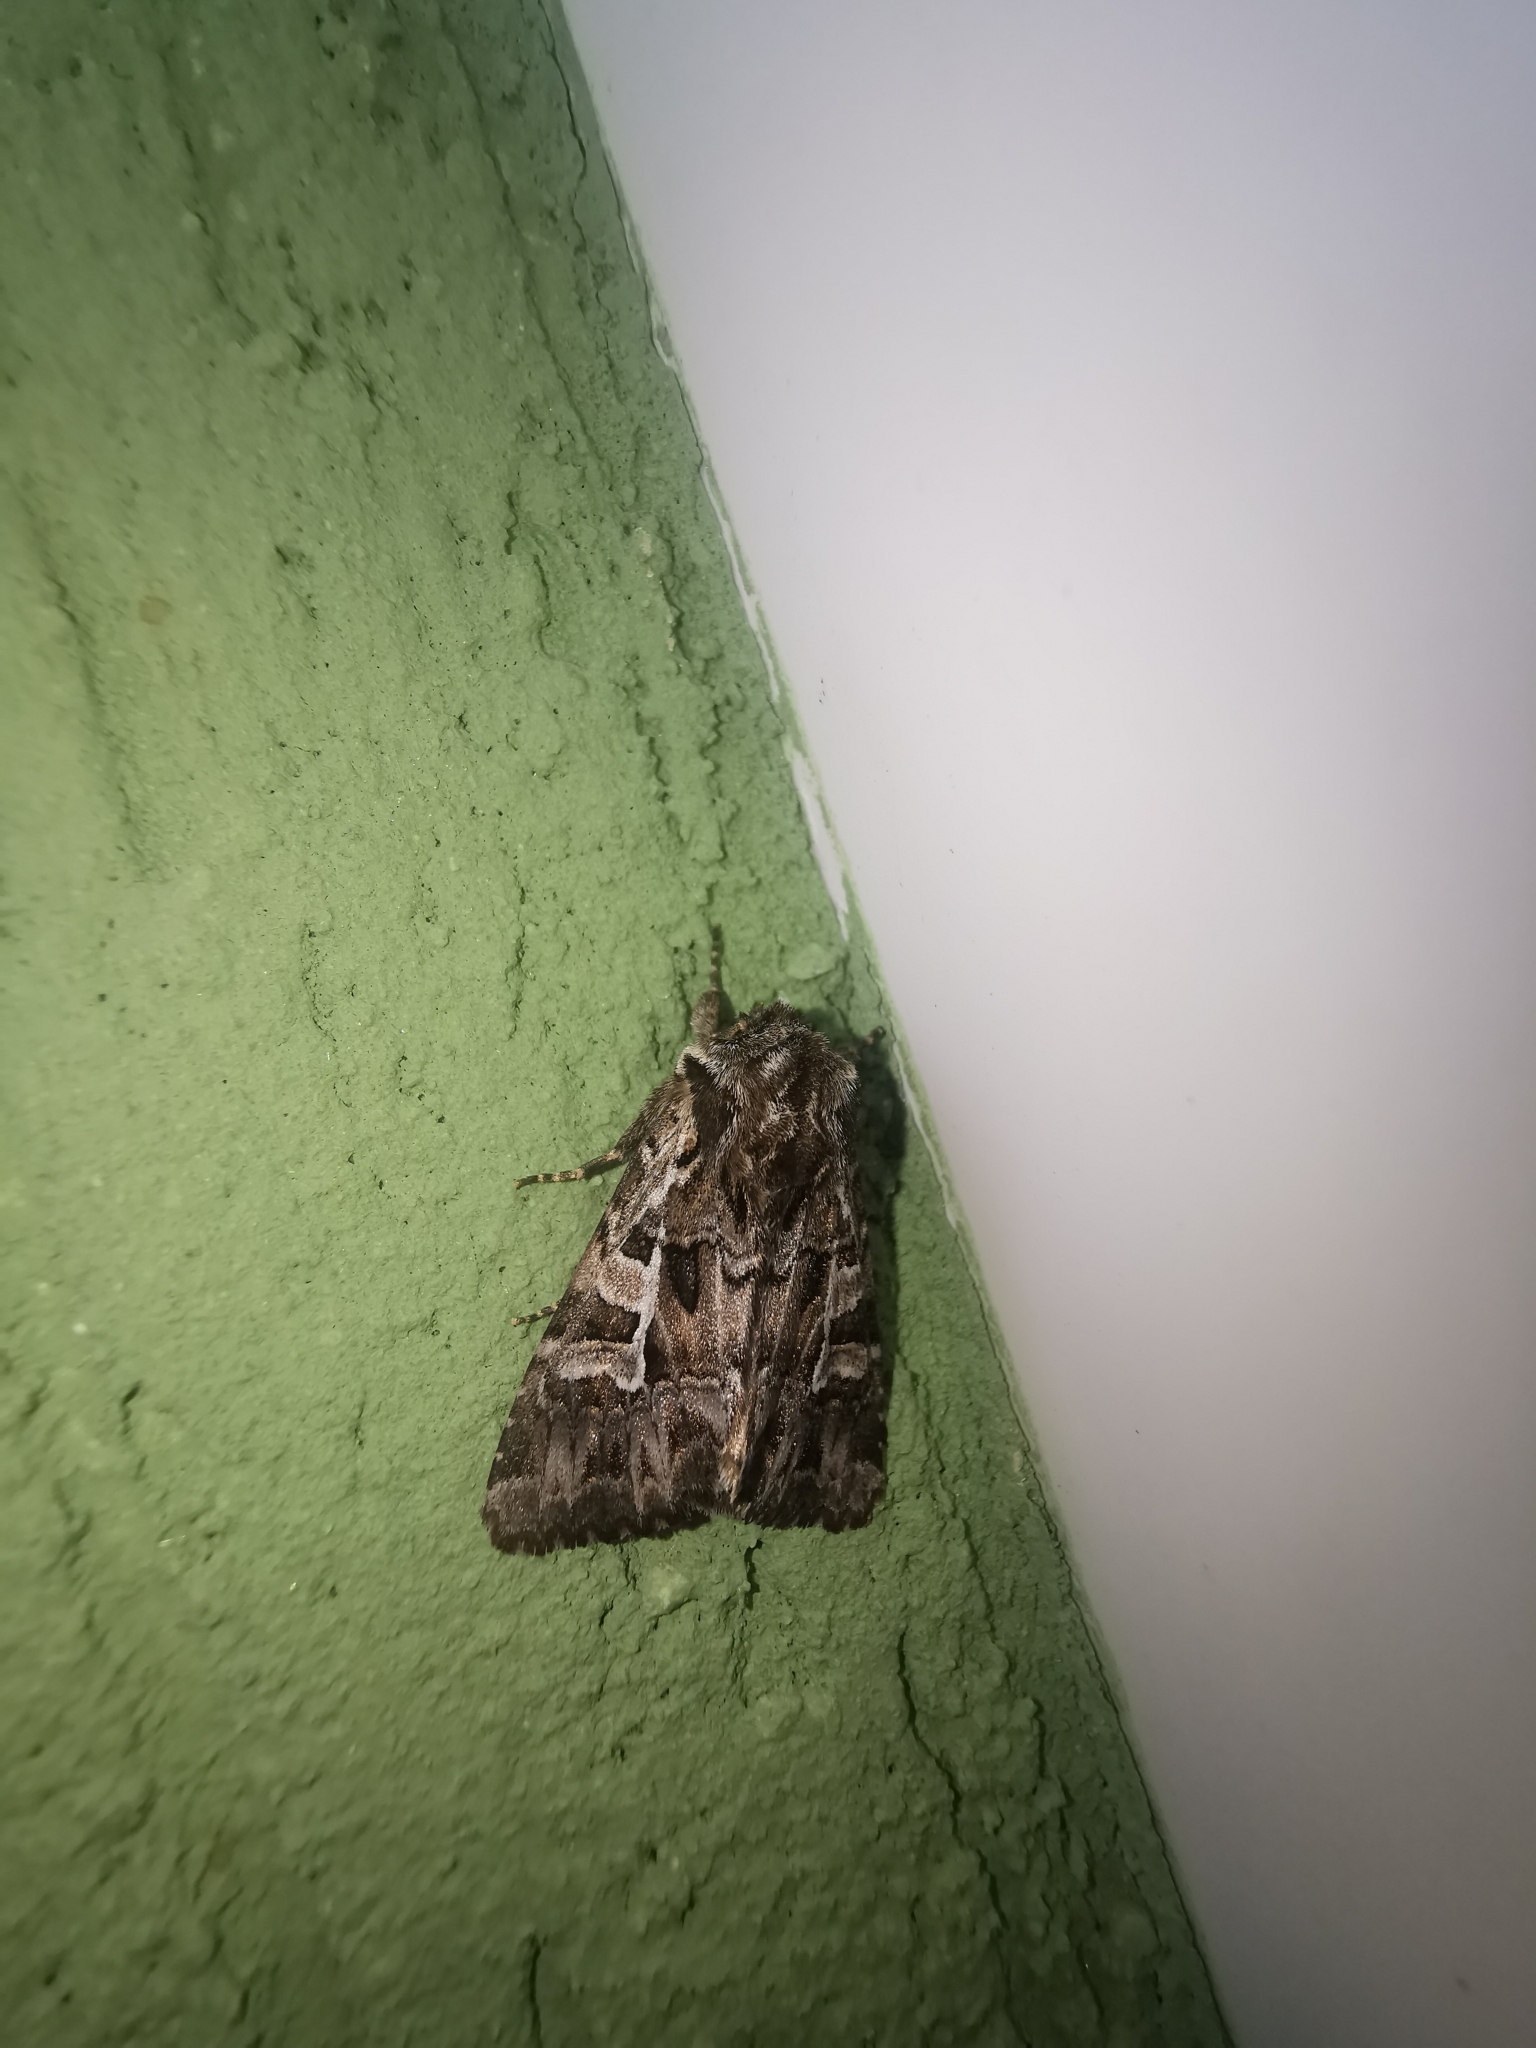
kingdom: Animalia
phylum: Arthropoda
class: Insecta
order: Lepidoptera
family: Noctuidae
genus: Pachetra
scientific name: Pachetra sagittigera
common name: Feathered ear
